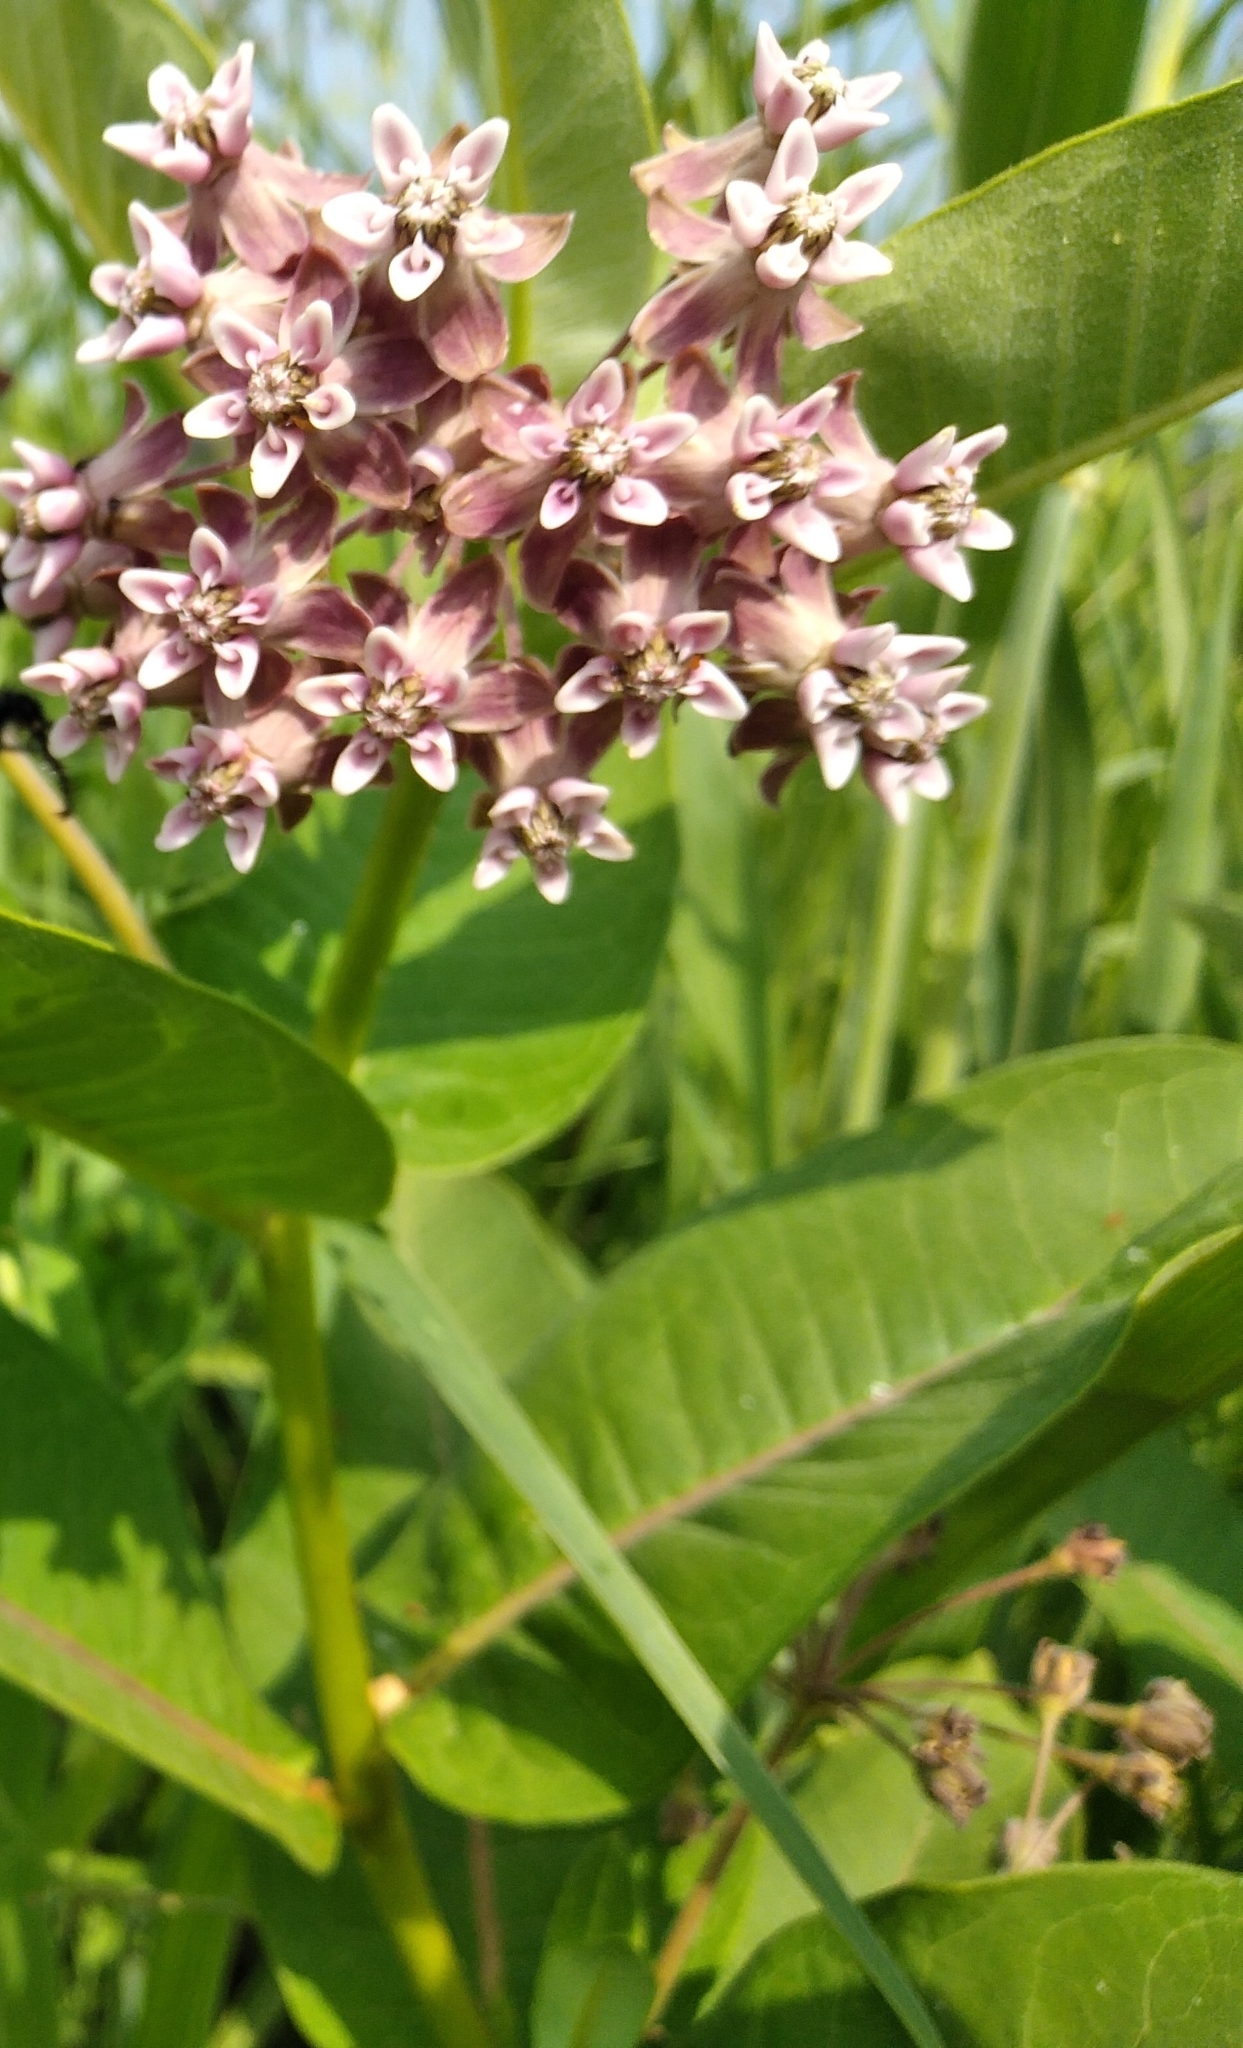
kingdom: Plantae
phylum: Tracheophyta
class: Magnoliopsida
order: Gentianales
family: Apocynaceae
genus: Asclepias
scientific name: Asclepias syriaca
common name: Common milkweed
